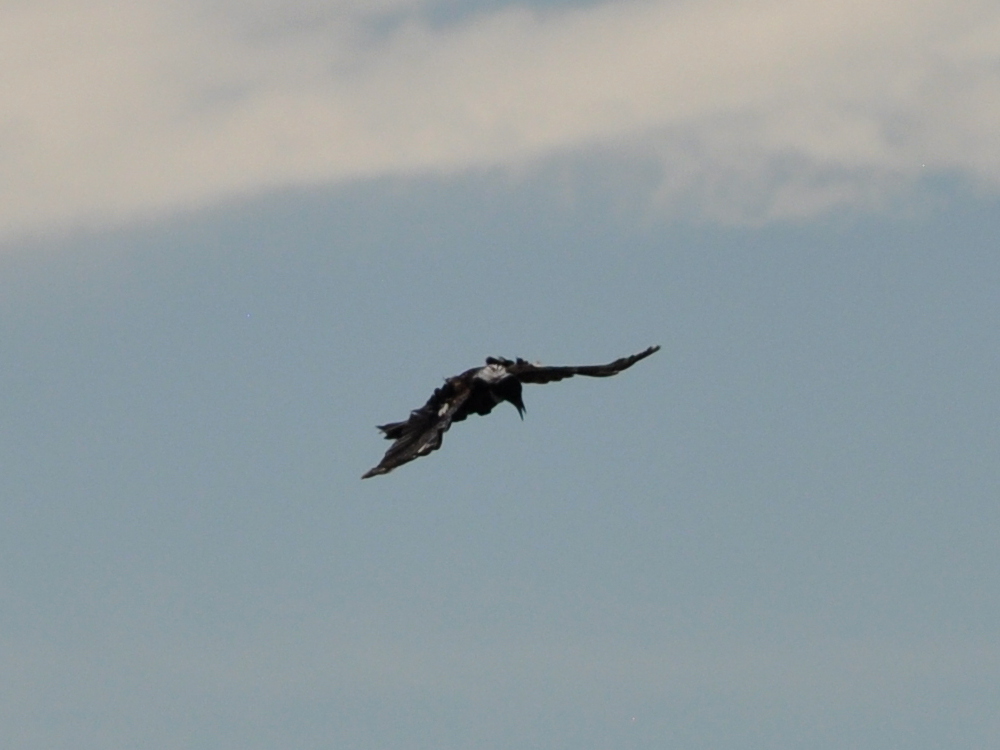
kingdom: Animalia
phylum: Chordata
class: Aves
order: Passeriformes
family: Meliphagidae
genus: Prosthemadera
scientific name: Prosthemadera novaeseelandiae
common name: Tui
